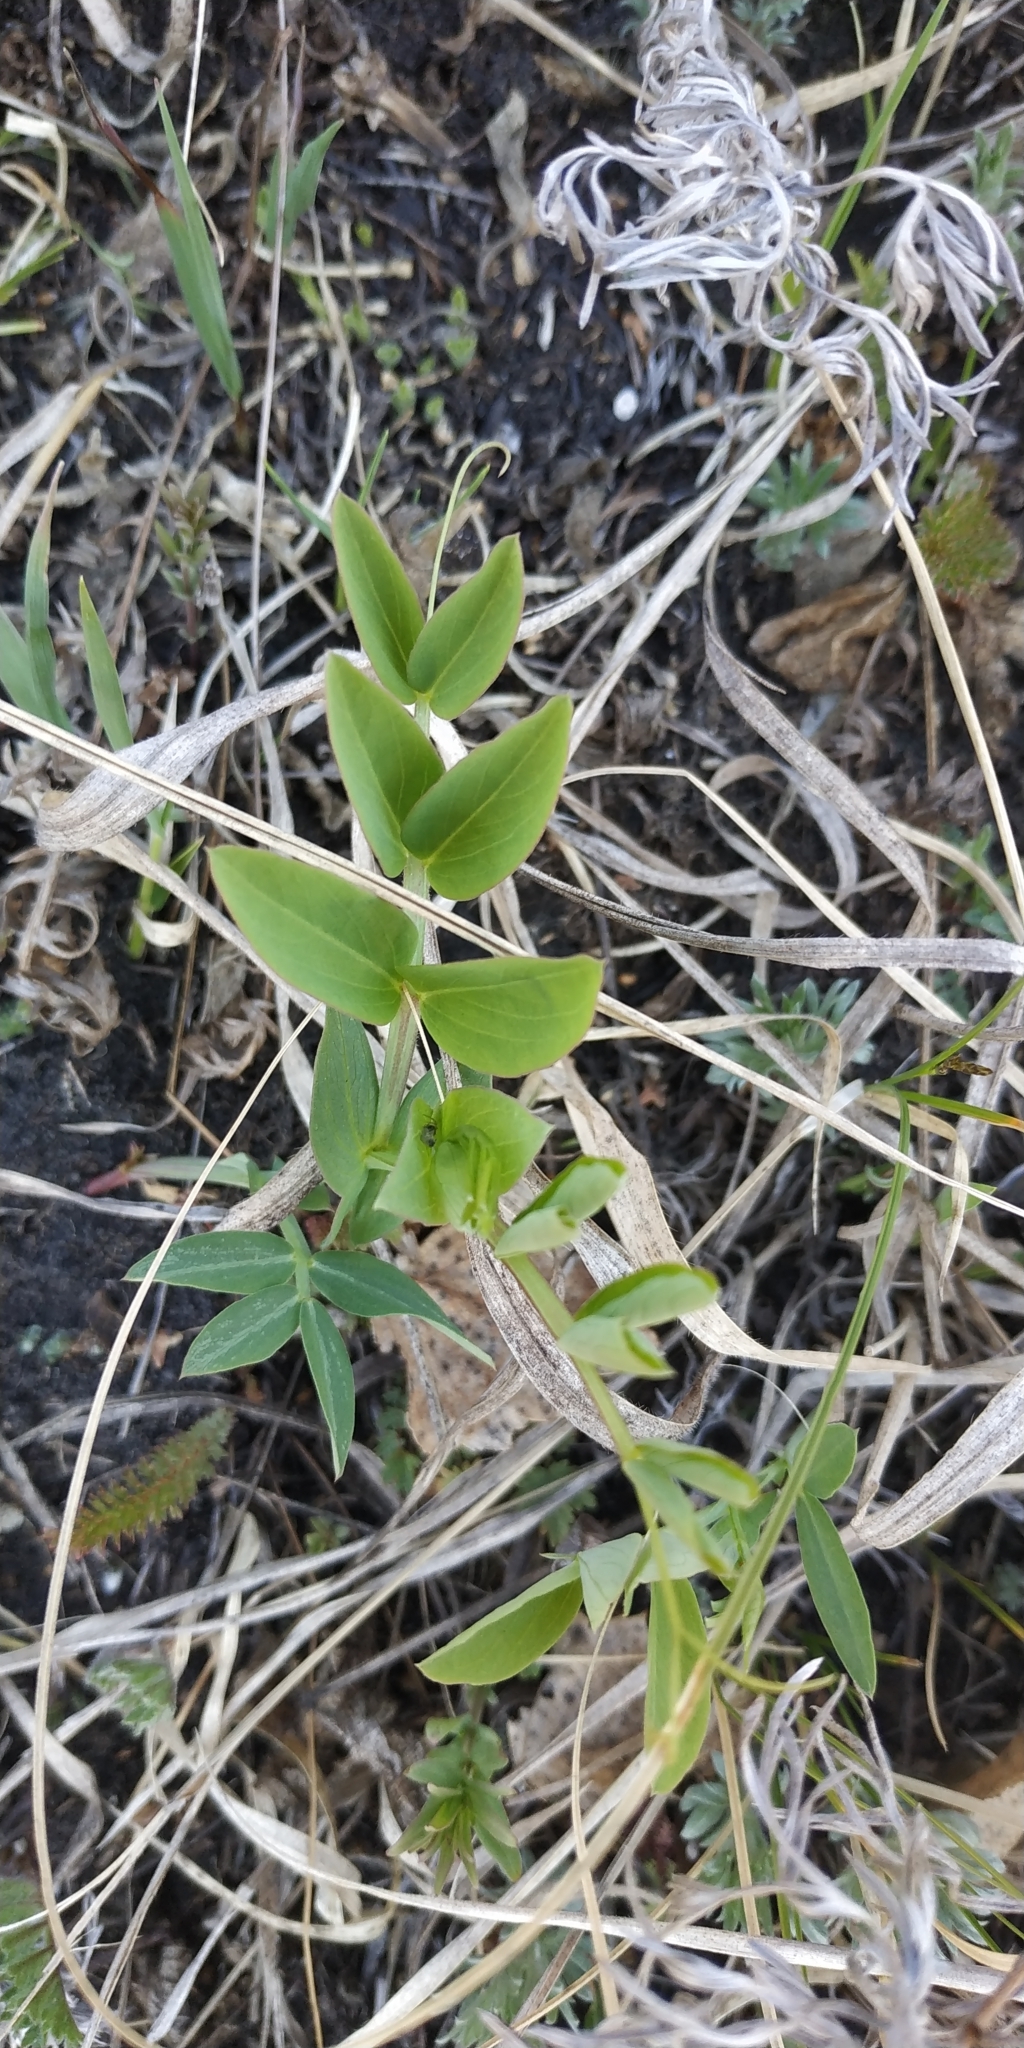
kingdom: Plantae
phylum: Tracheophyta
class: Magnoliopsida
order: Fabales
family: Fabaceae
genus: Lathyrus
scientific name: Lathyrus pisiformis
